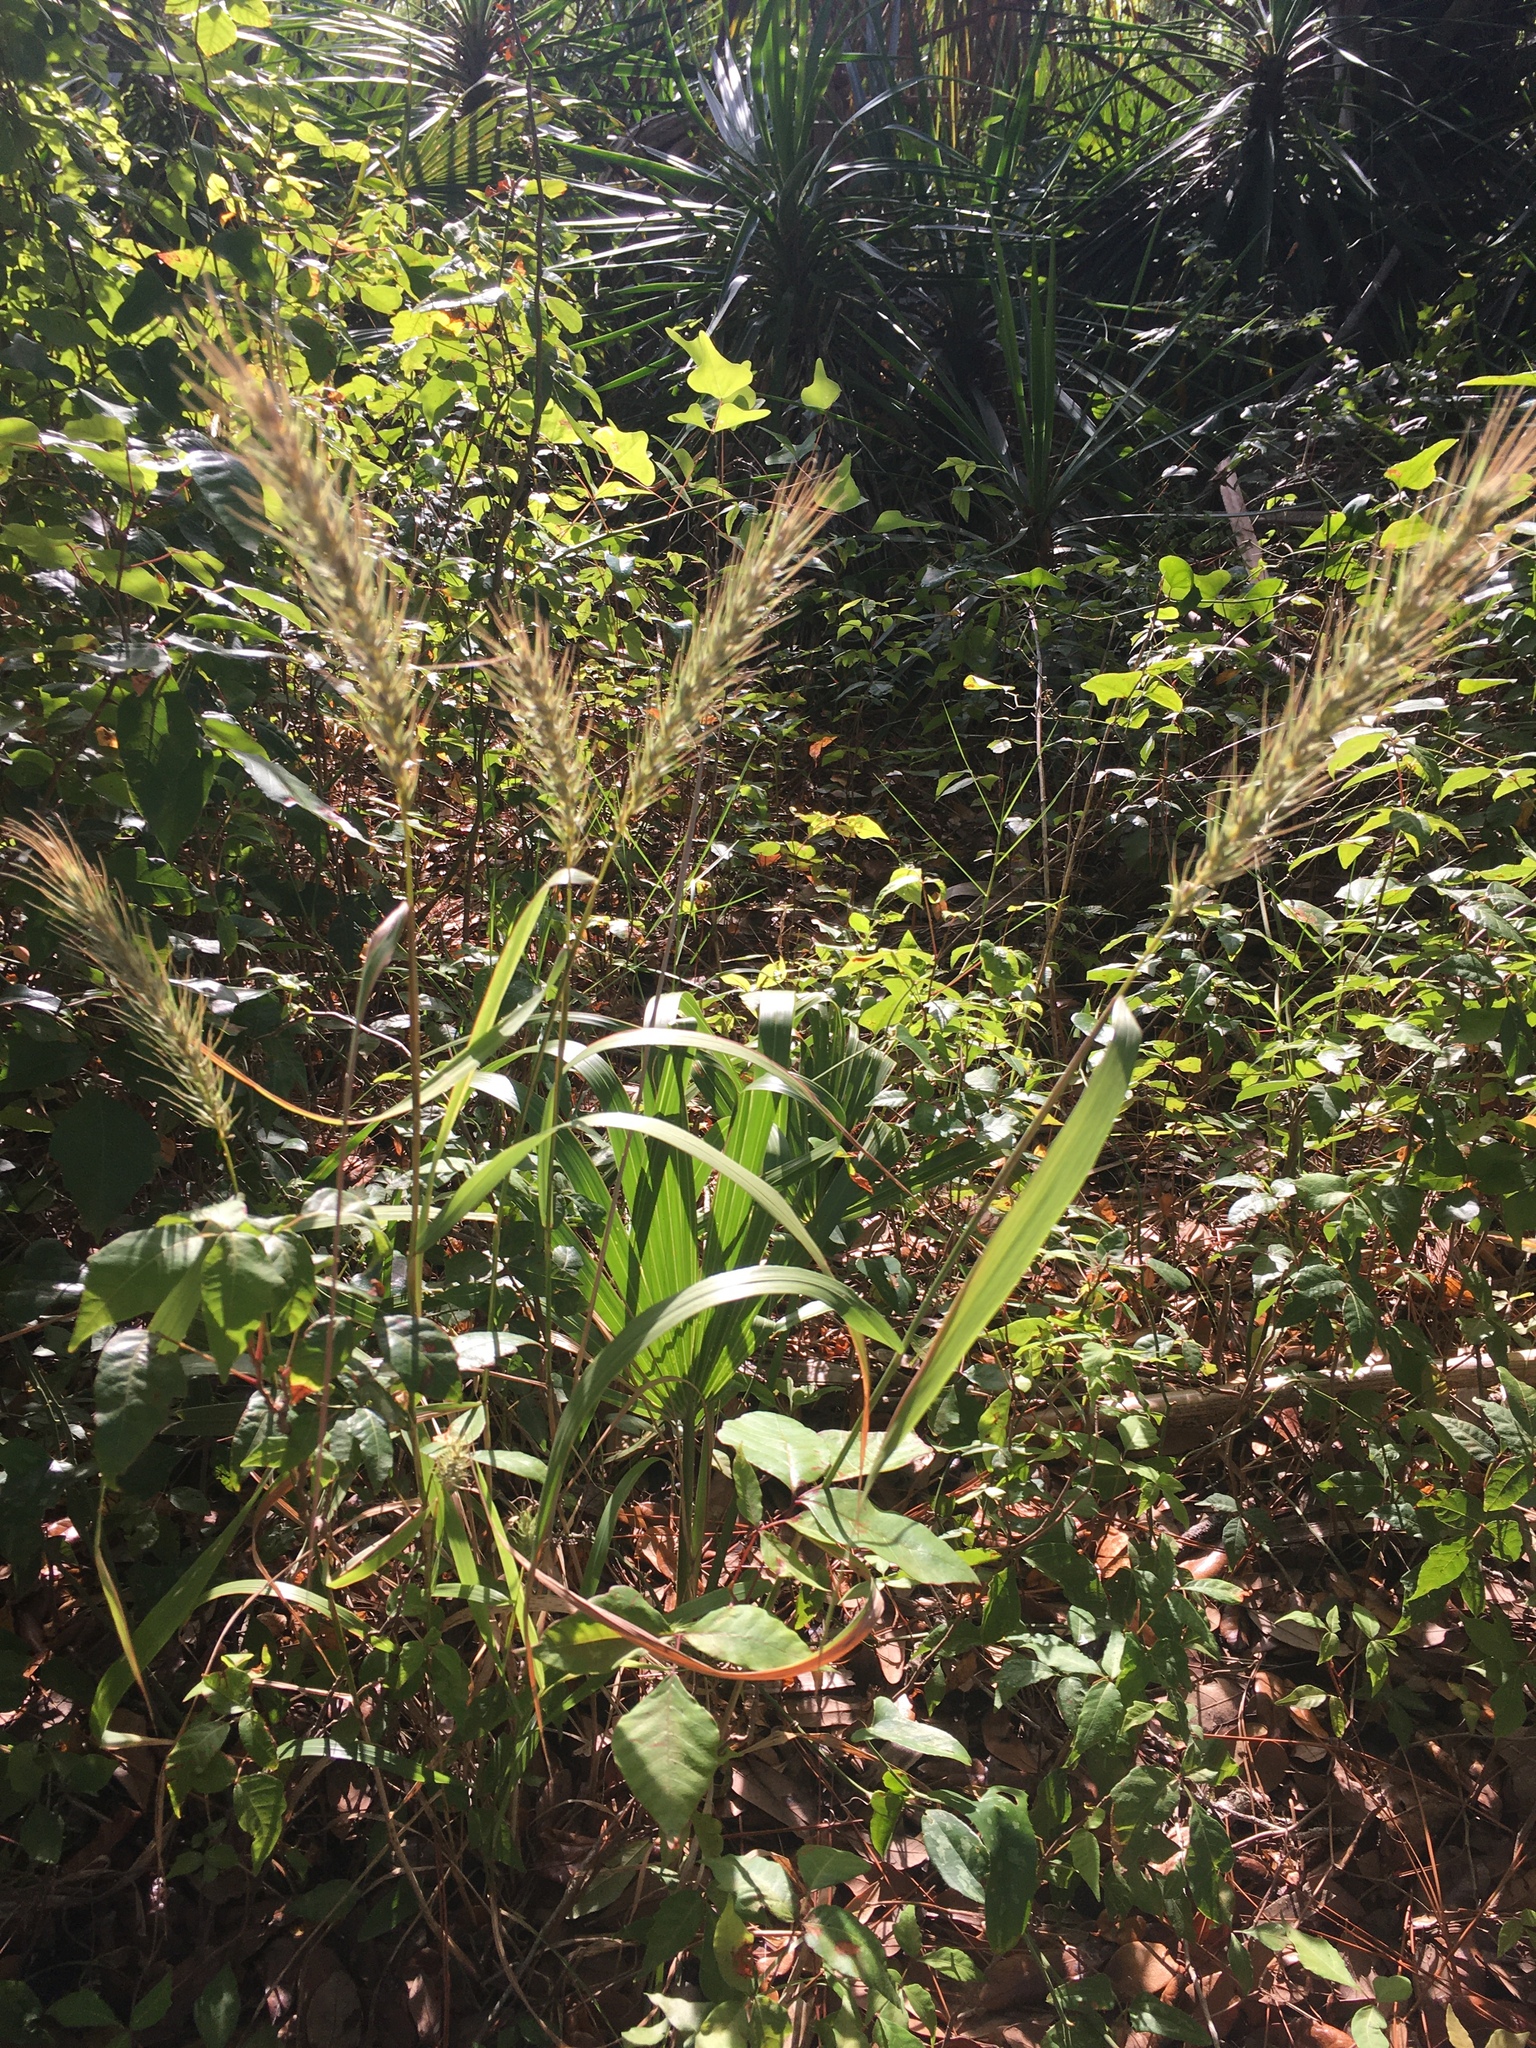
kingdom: Plantae
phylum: Tracheophyta
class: Liliopsida
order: Poales
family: Poaceae
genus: Elymus
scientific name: Elymus virginicus
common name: Common eastern wildrye
